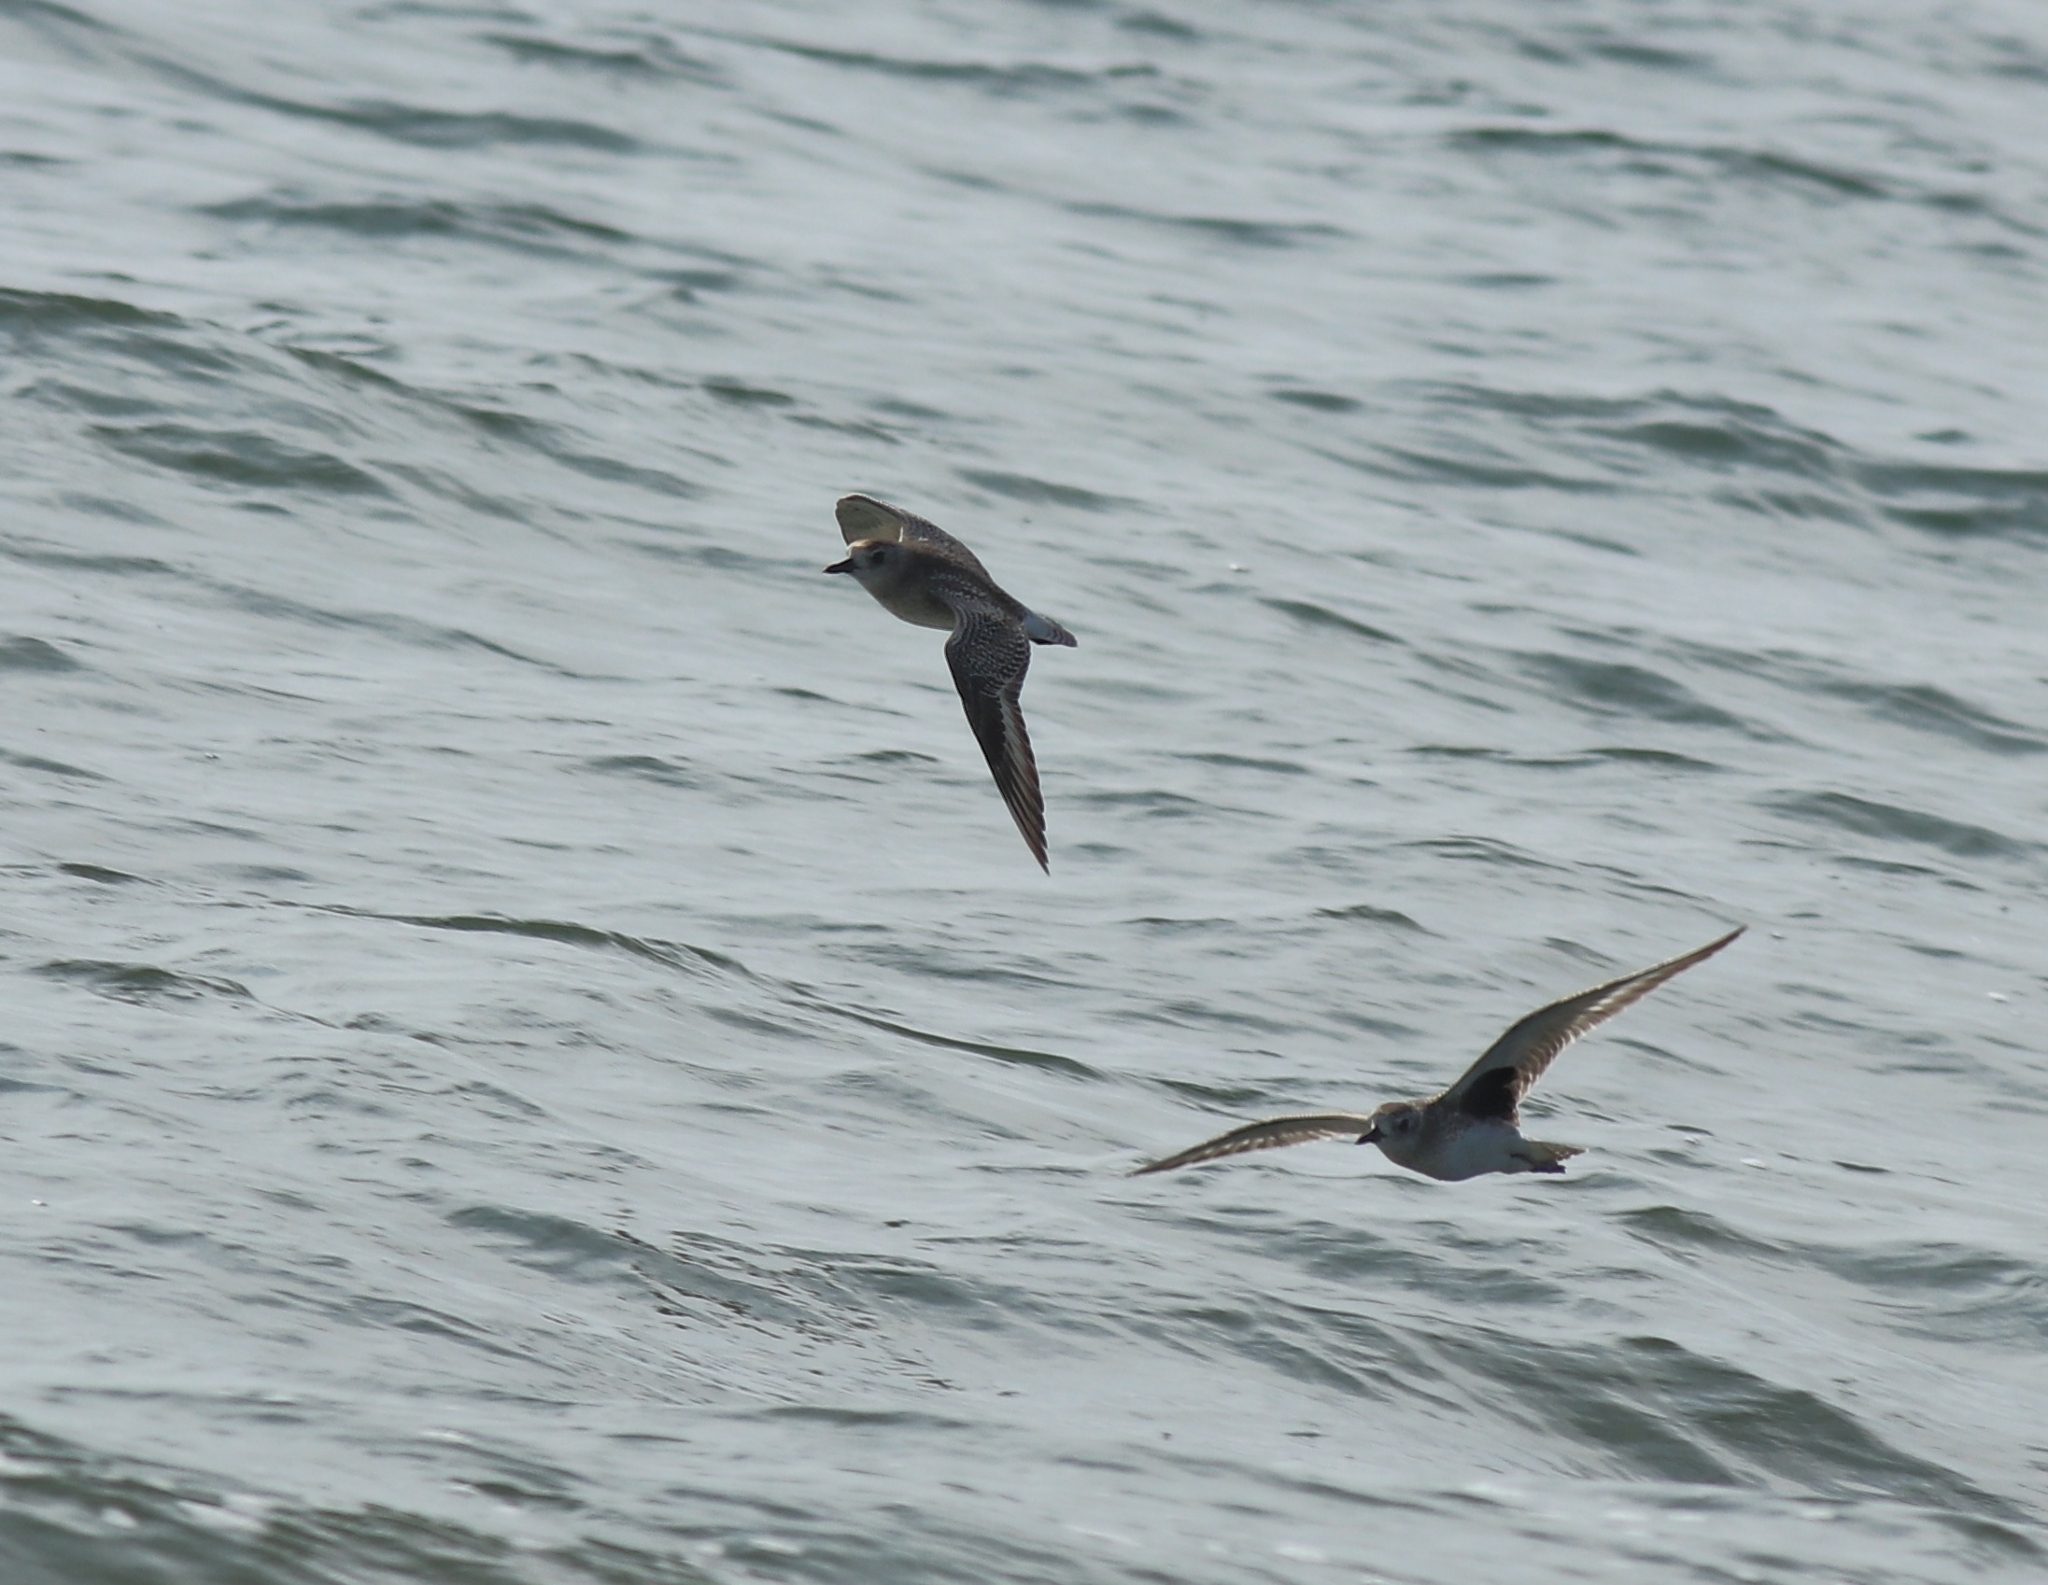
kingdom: Animalia
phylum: Chordata
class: Aves
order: Charadriiformes
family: Charadriidae
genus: Pluvialis
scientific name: Pluvialis squatarola
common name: Grey plover
